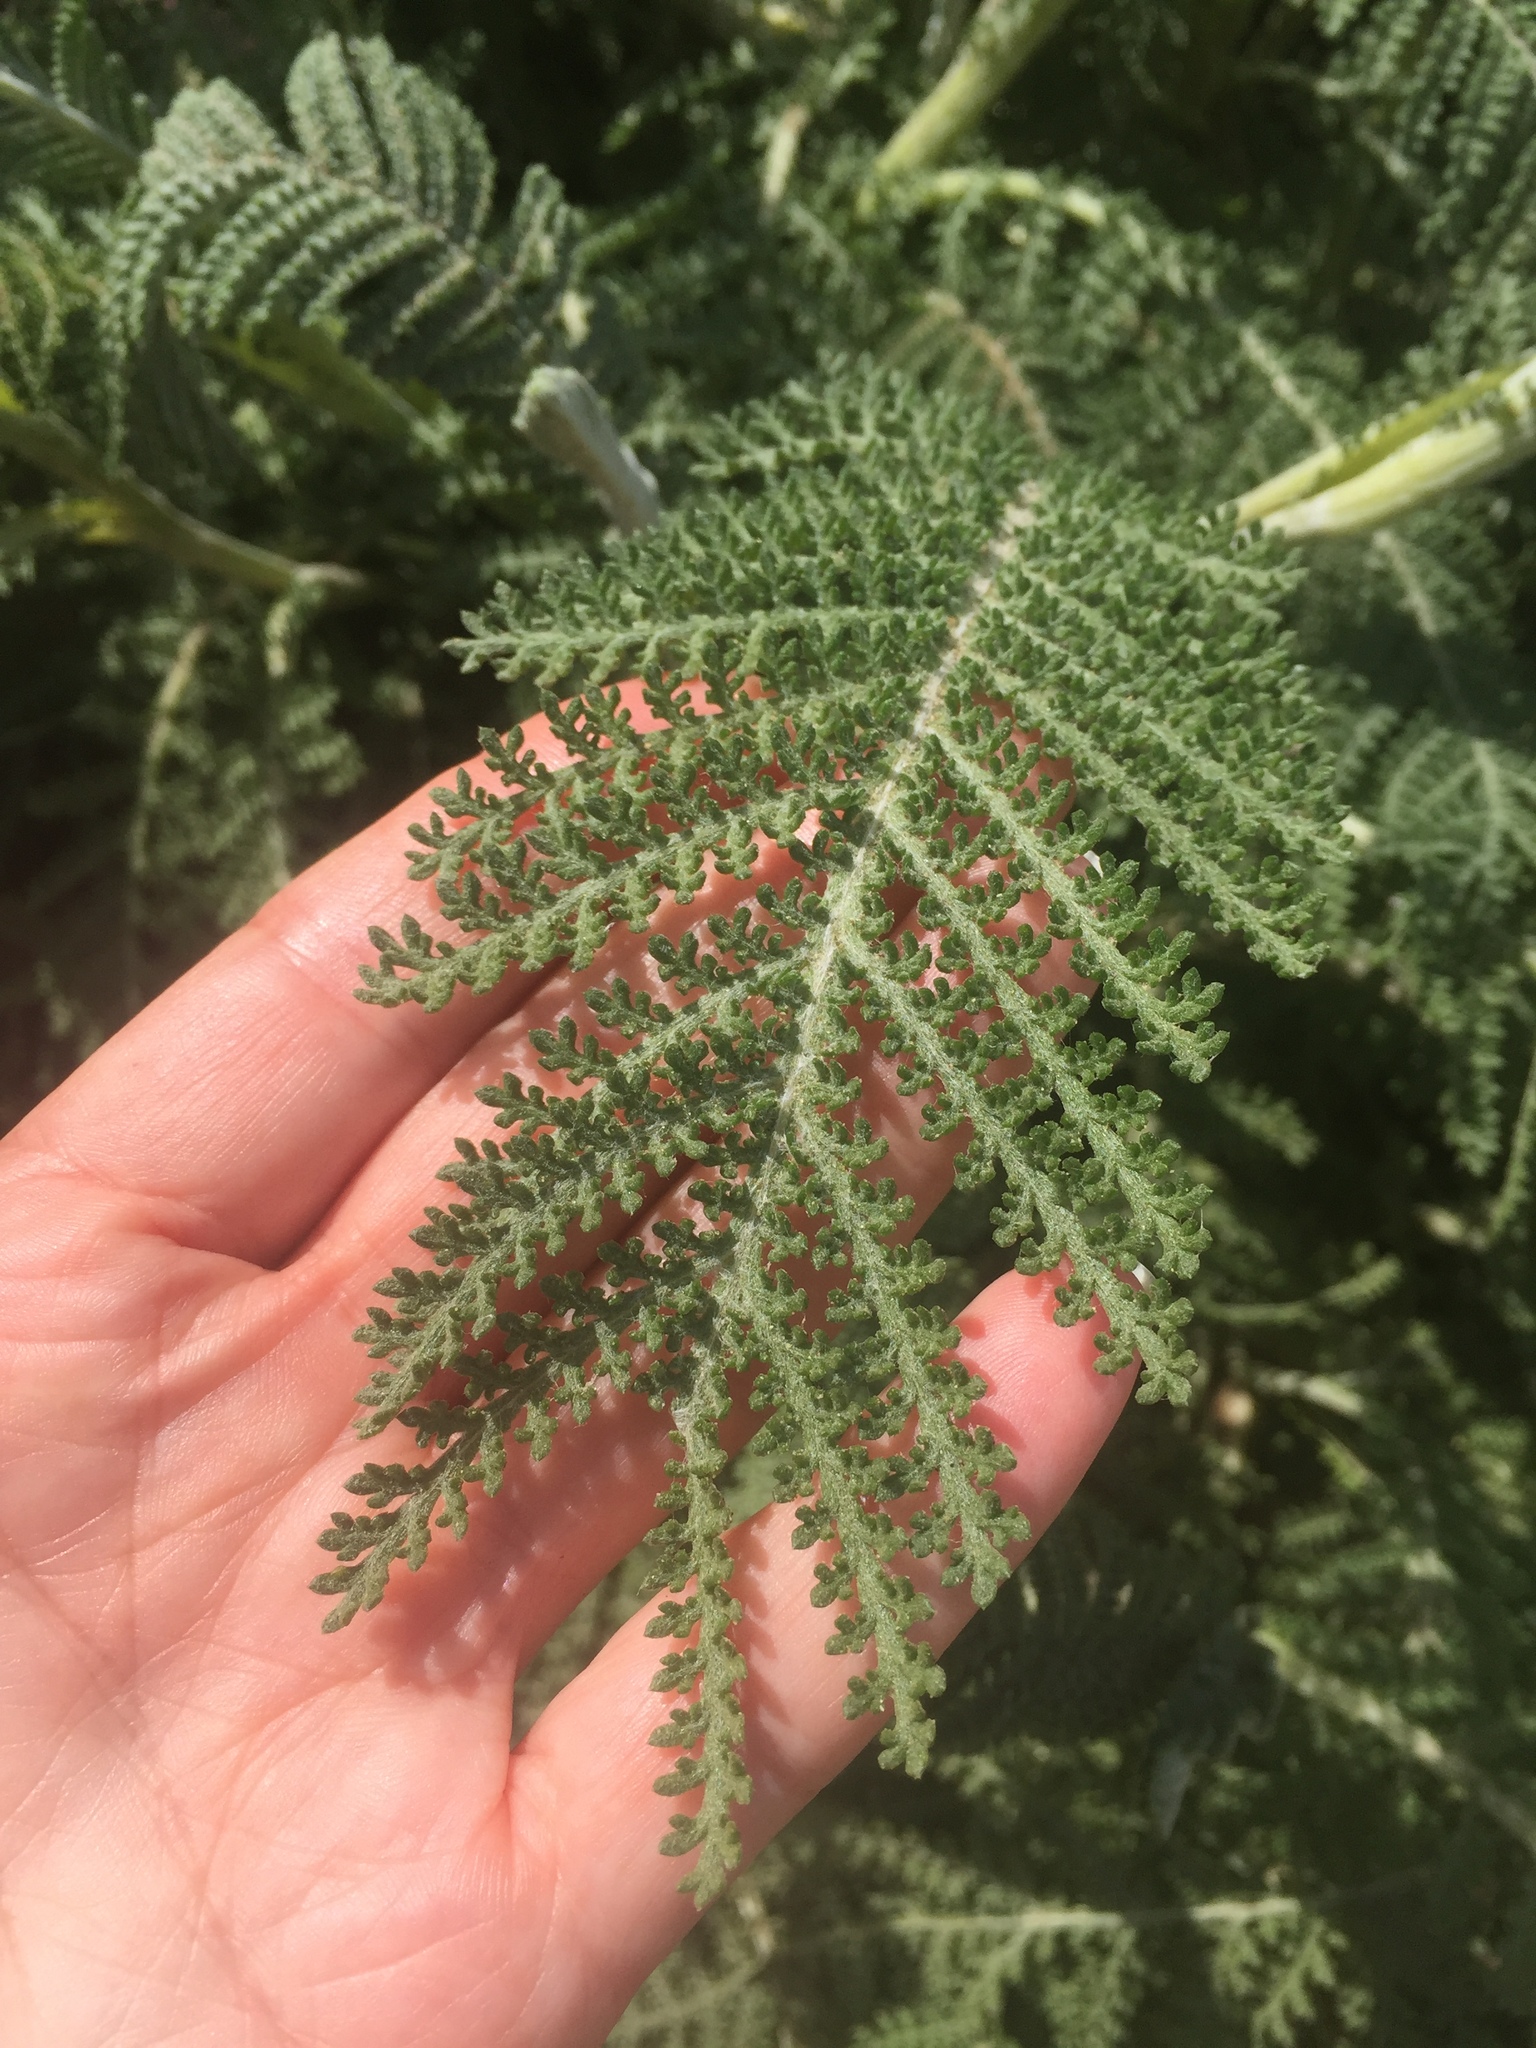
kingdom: Plantae
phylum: Tracheophyta
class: Magnoliopsida
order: Asterales
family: Asteraceae
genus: Tanacetum
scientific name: Tanacetum bipinnatum
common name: Dwarf tansy
